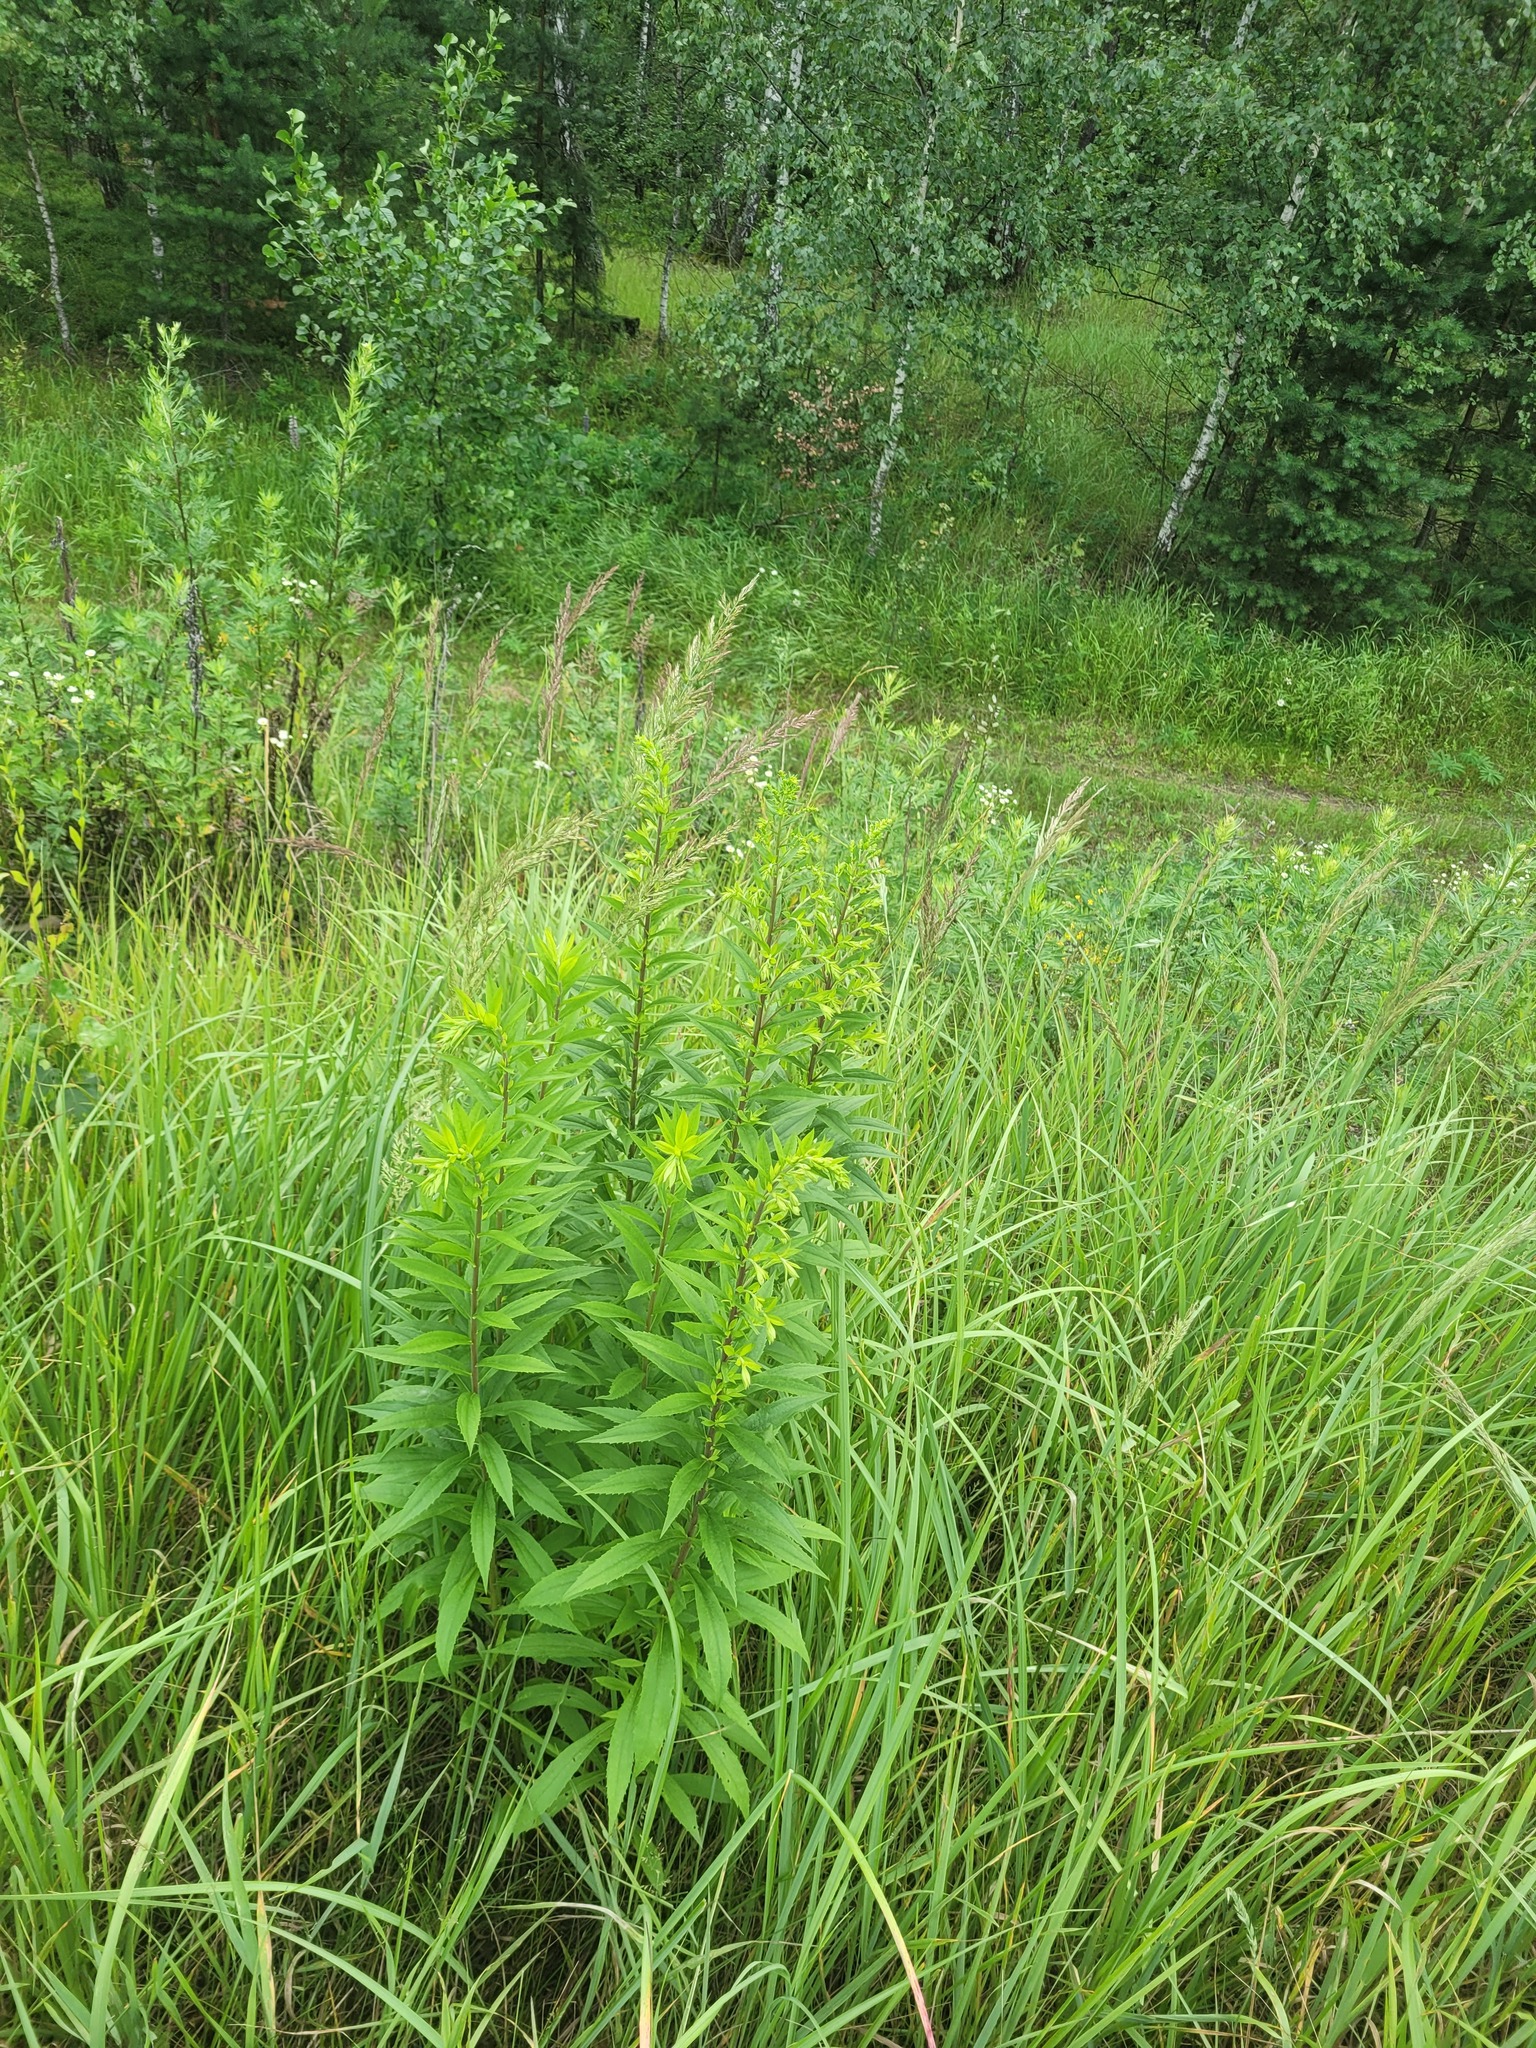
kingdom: Plantae
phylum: Tracheophyta
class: Magnoliopsida
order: Asterales
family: Asteraceae
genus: Solidago
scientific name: Solidago canadensis
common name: Canada goldenrod
